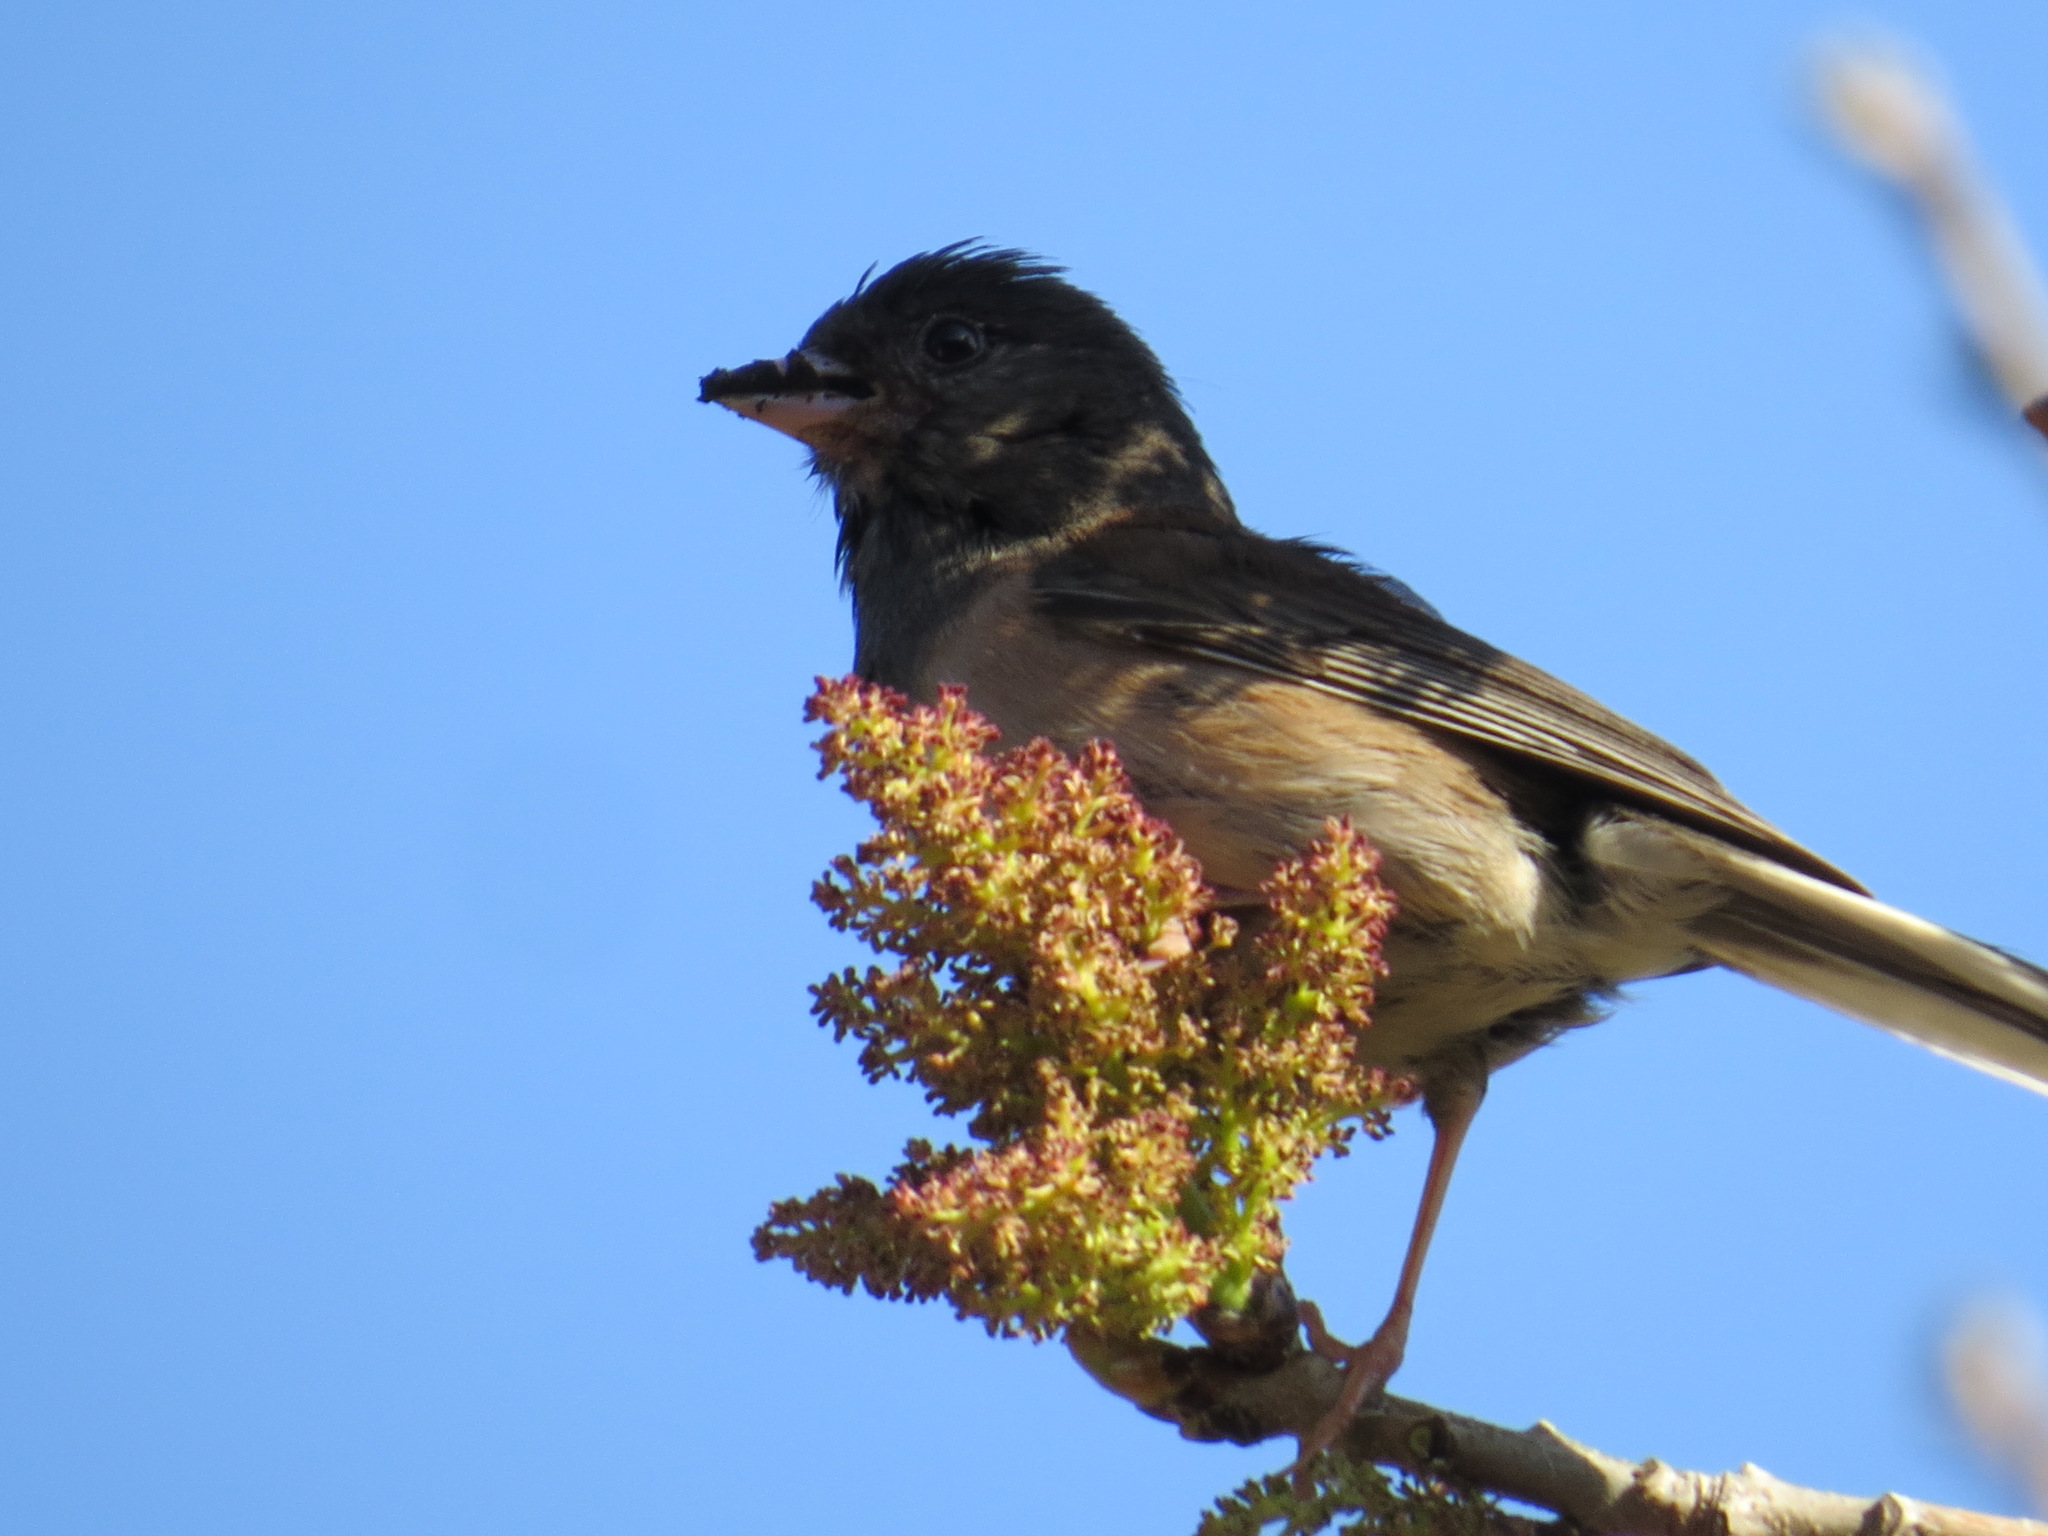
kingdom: Animalia
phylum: Chordata
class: Aves
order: Passeriformes
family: Passerellidae
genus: Junco
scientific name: Junco hyemalis
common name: Dark-eyed junco
